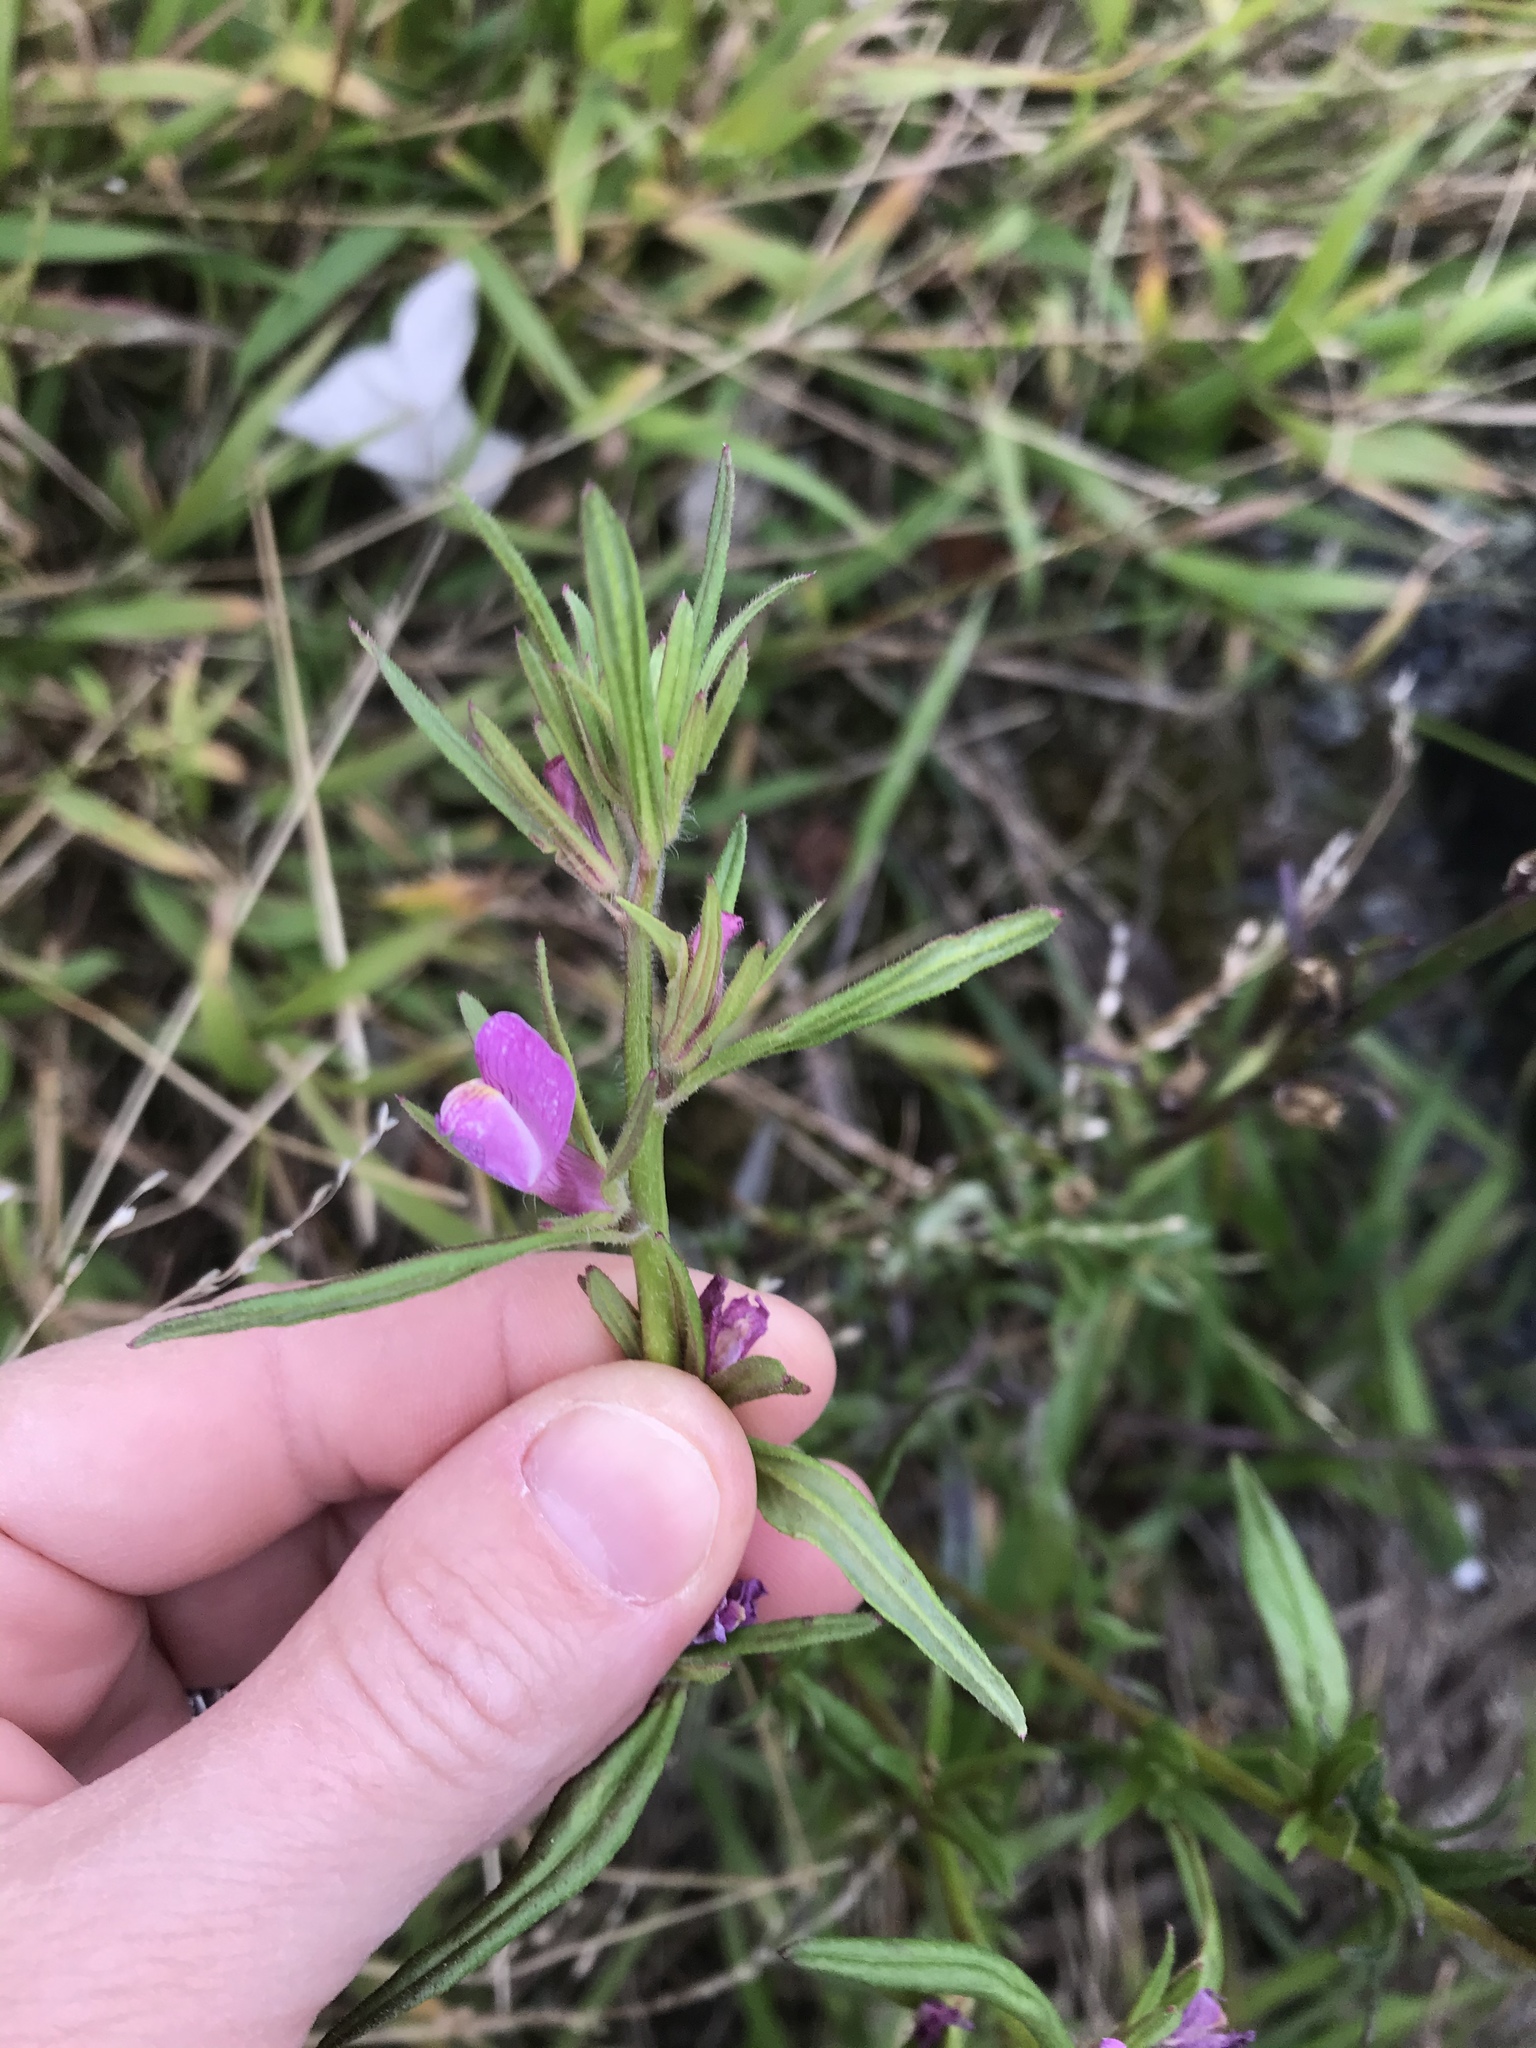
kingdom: Plantae
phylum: Tracheophyta
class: Magnoliopsida
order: Lamiales
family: Plantaginaceae
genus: Misopates
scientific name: Misopates orontium
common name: Weasel's-snout
